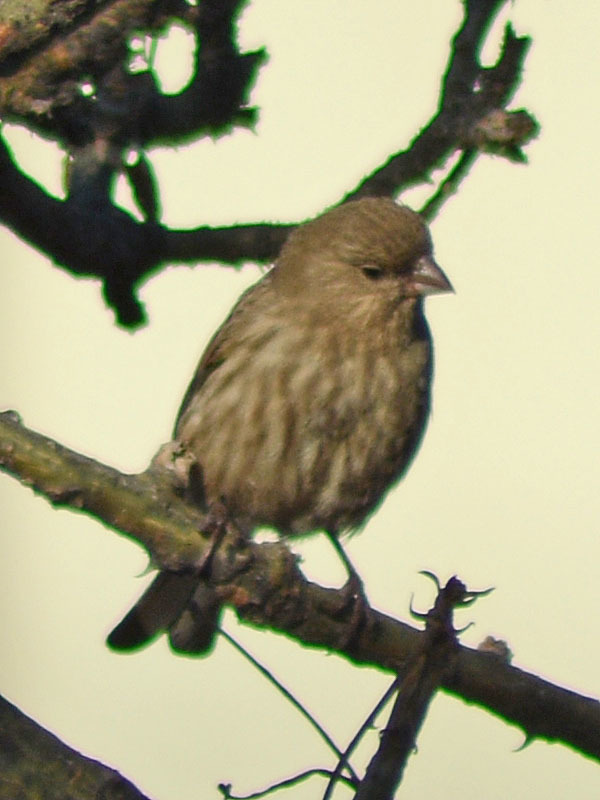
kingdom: Animalia
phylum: Chordata
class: Aves
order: Passeriformes
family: Fringillidae
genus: Haemorhous
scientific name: Haemorhous mexicanus
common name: House finch
